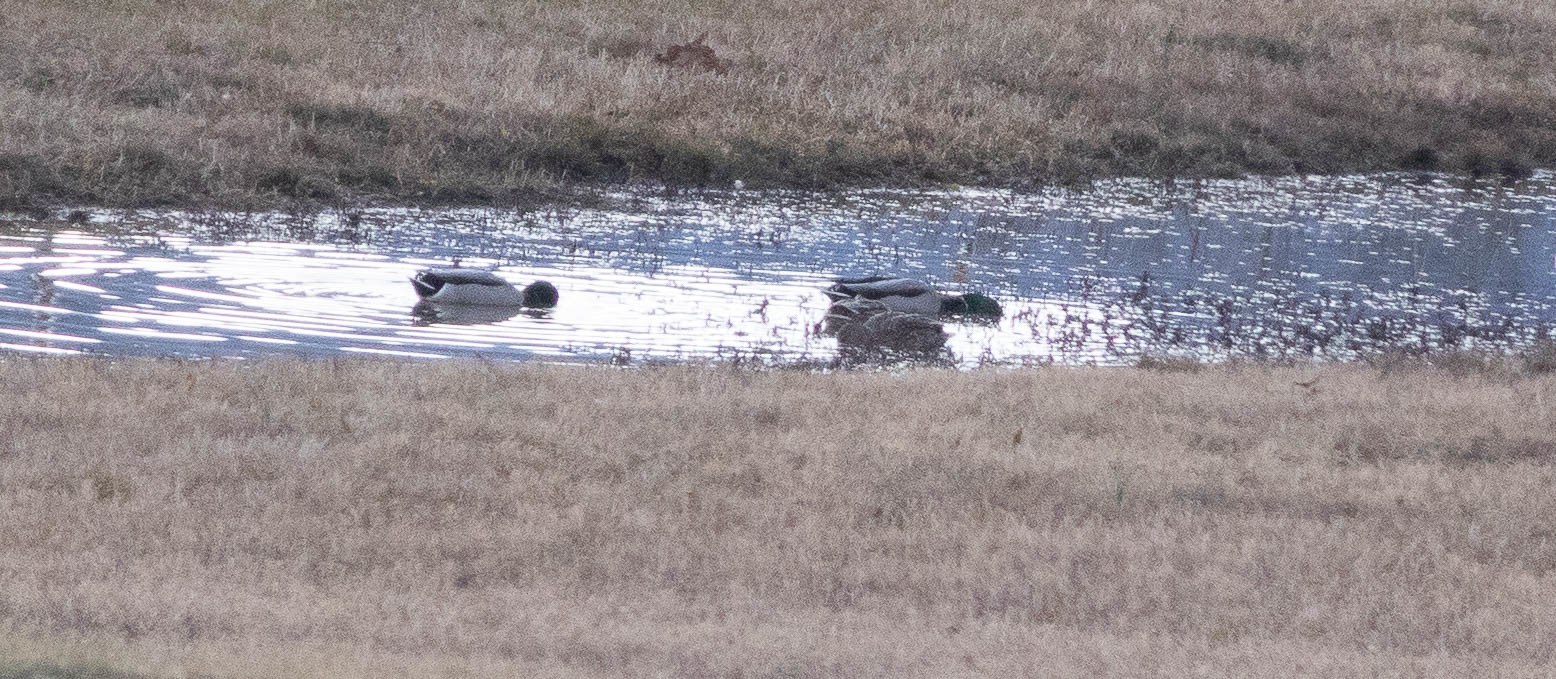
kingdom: Animalia
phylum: Chordata
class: Aves
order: Anseriformes
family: Anatidae
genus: Anas
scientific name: Anas platyrhynchos
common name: Mallard
